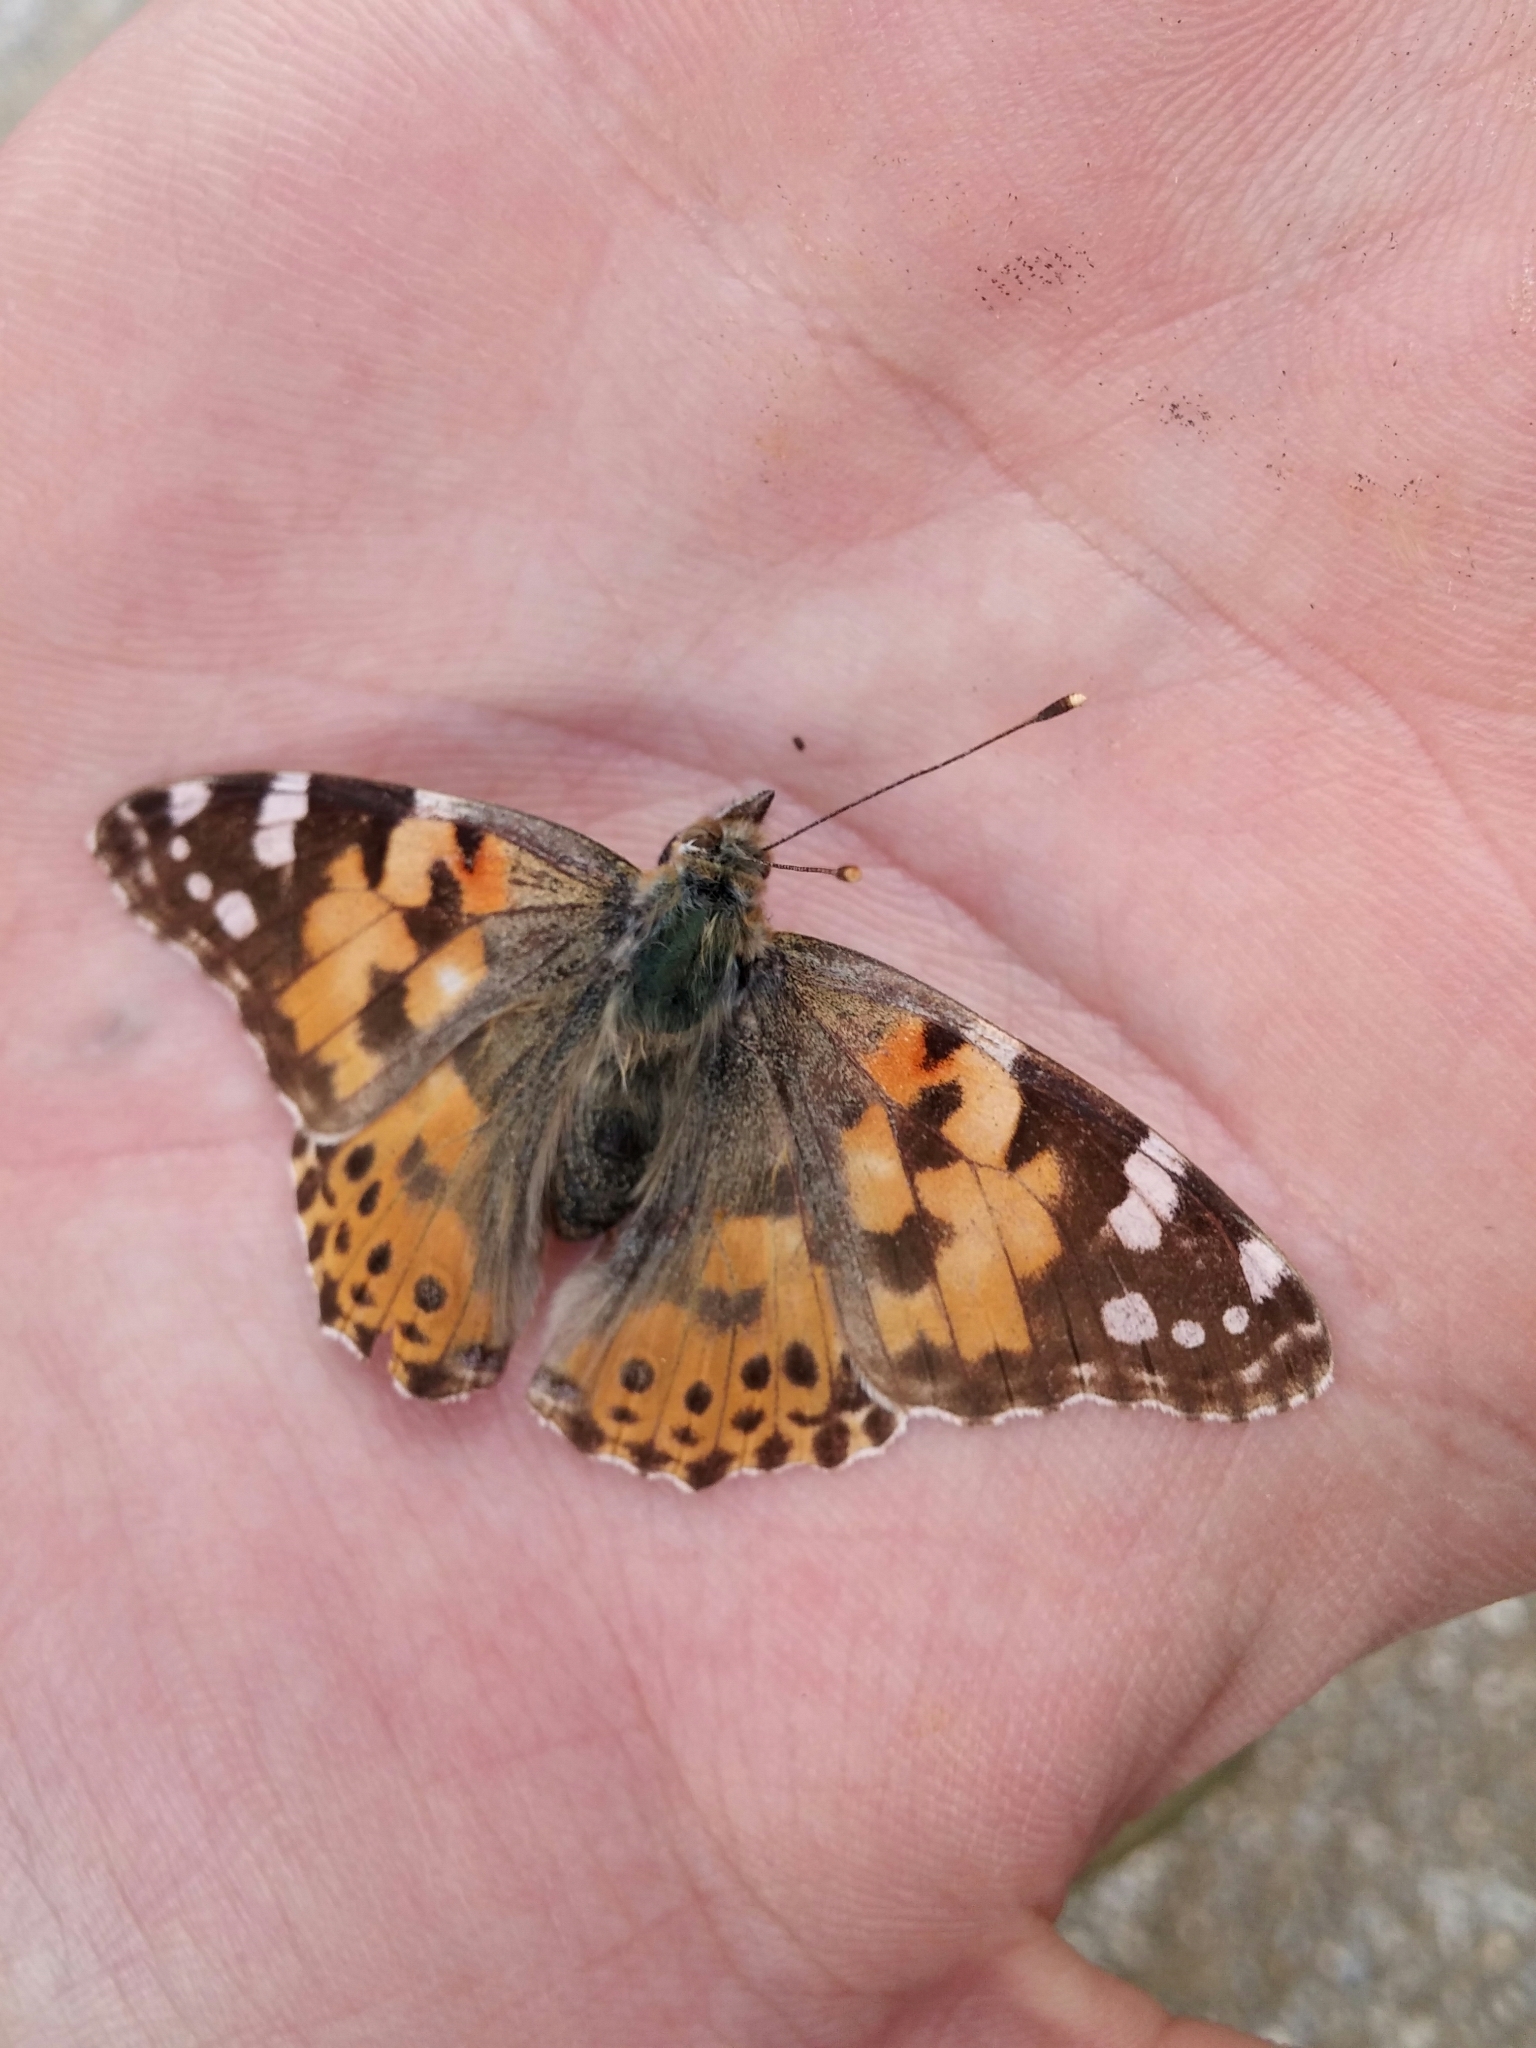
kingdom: Animalia
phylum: Arthropoda
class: Insecta
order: Lepidoptera
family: Nymphalidae
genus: Vanessa
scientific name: Vanessa cardui
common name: Painted lady
